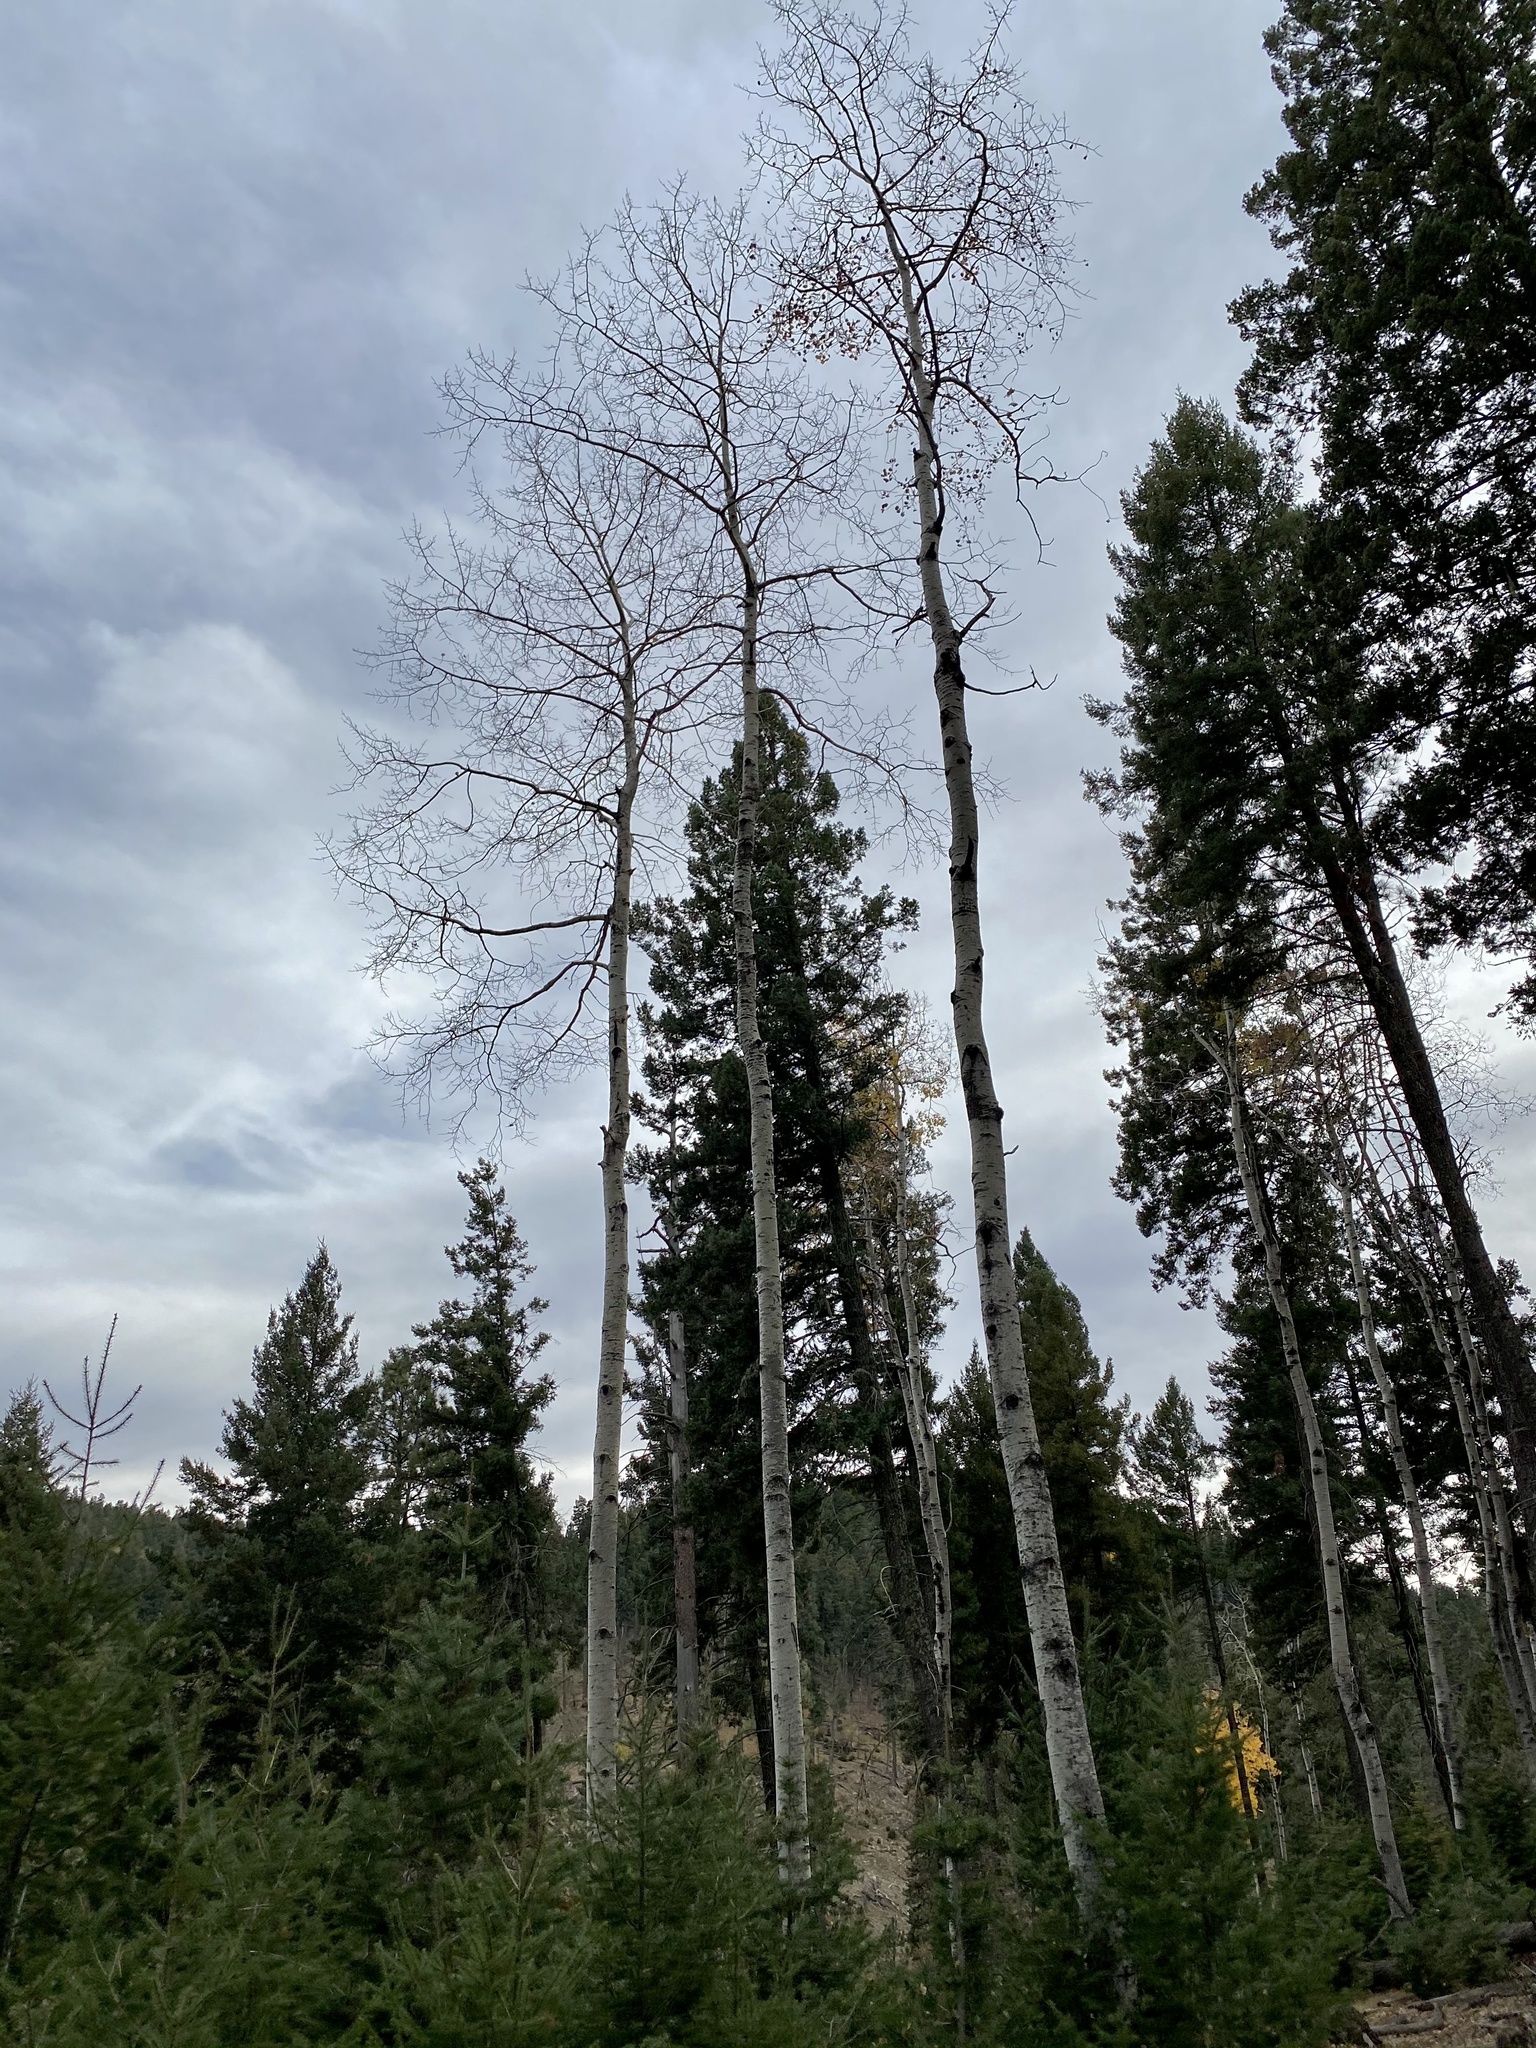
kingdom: Plantae
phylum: Tracheophyta
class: Magnoliopsida
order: Malpighiales
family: Salicaceae
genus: Populus
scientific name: Populus tremuloides
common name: Quaking aspen
